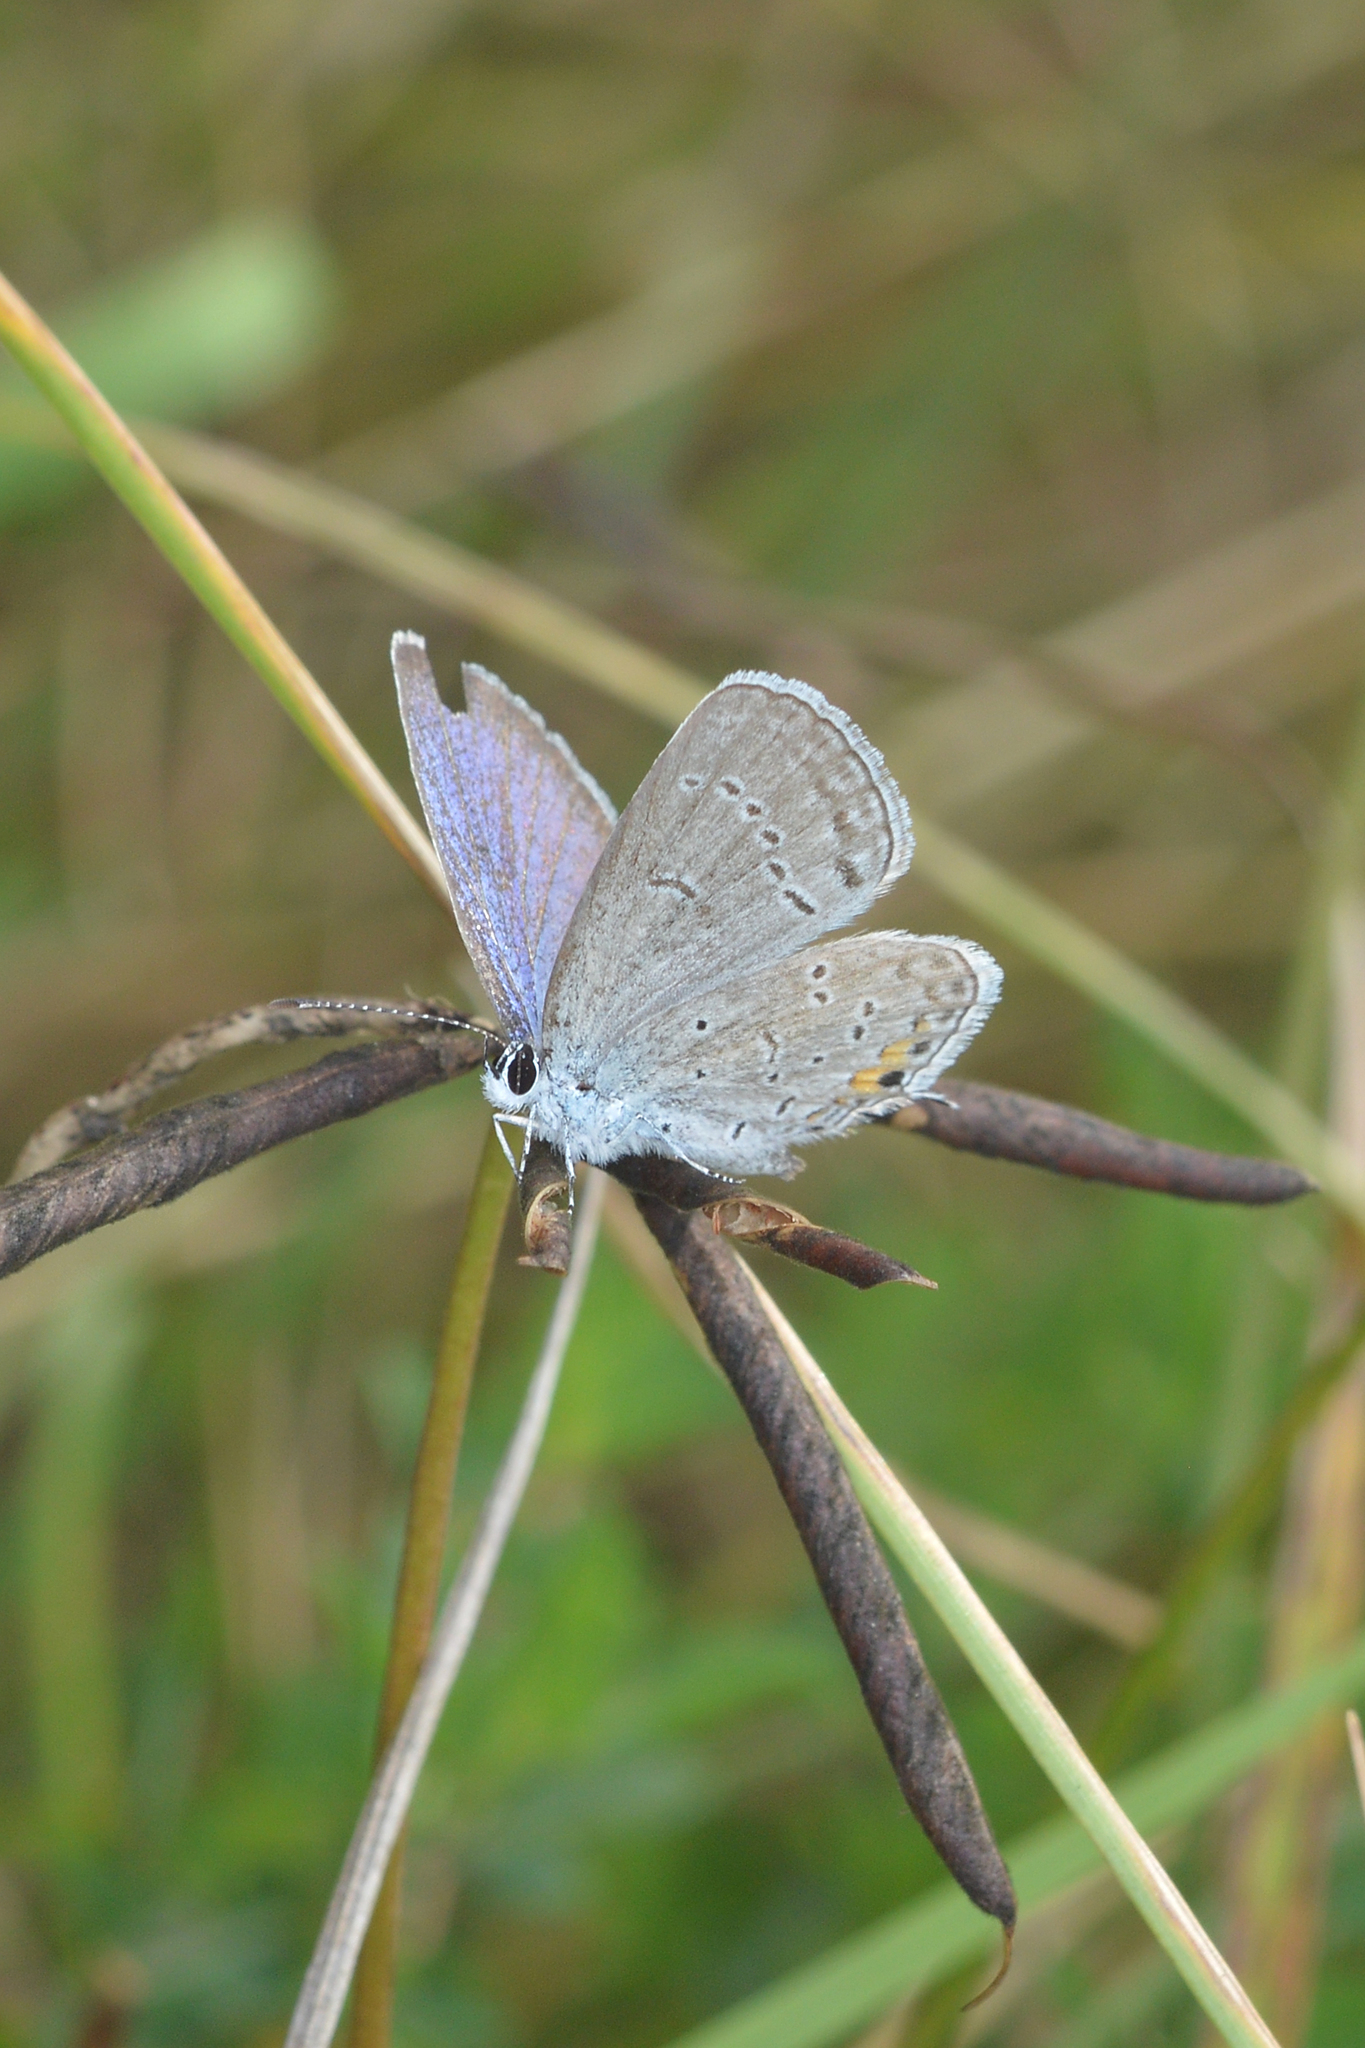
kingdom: Animalia
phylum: Arthropoda
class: Insecta
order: Lepidoptera
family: Lycaenidae
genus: Elkalyce
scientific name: Elkalyce comyntas
